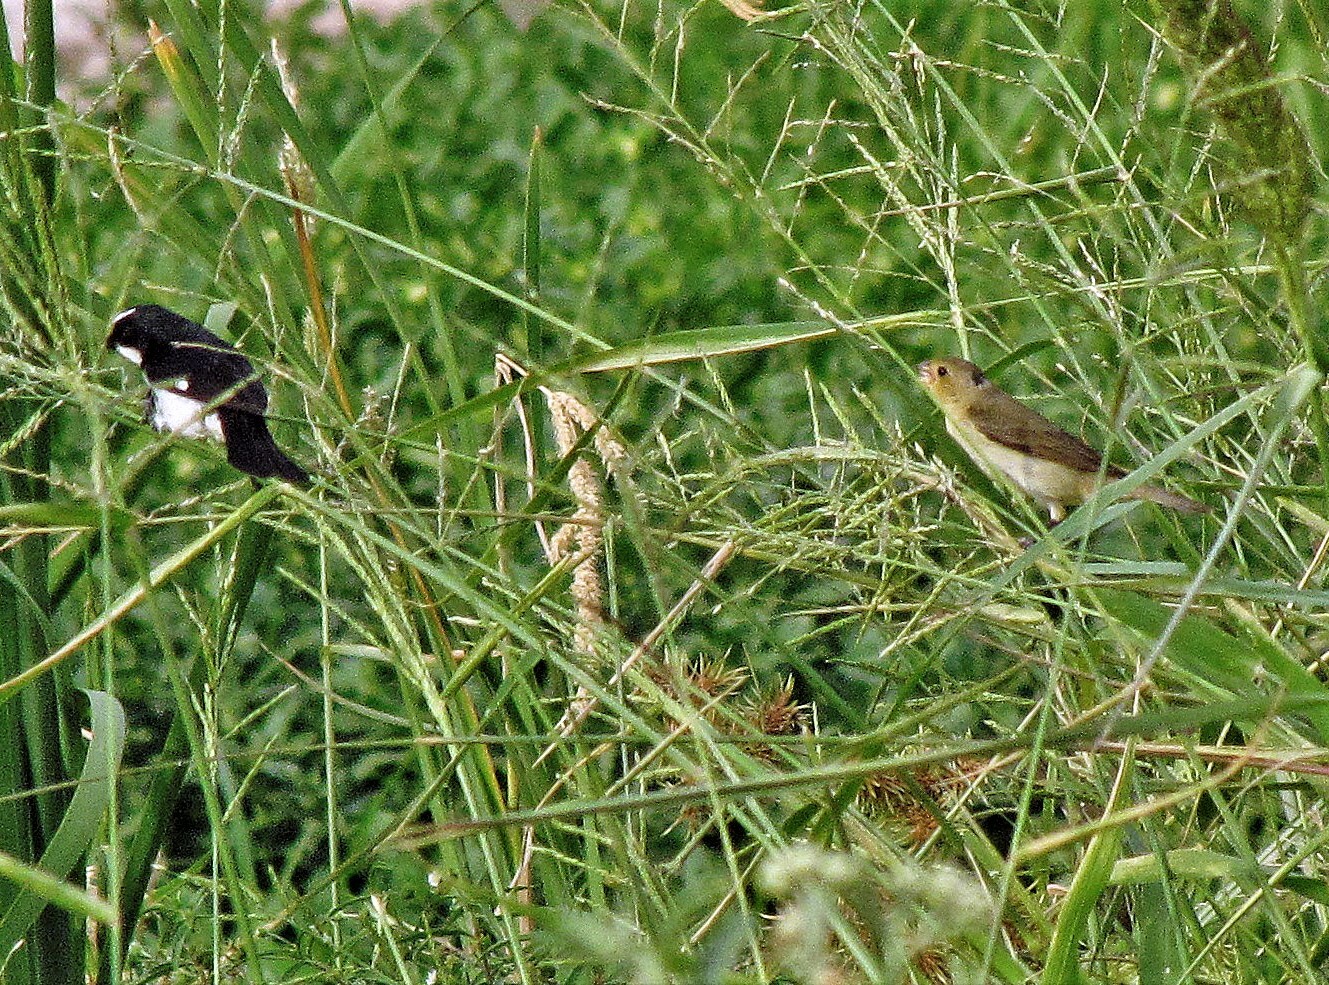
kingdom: Animalia
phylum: Chordata
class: Aves
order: Passeriformes
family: Thraupidae
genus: Sporophila
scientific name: Sporophila lineola
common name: Lined seedeater
